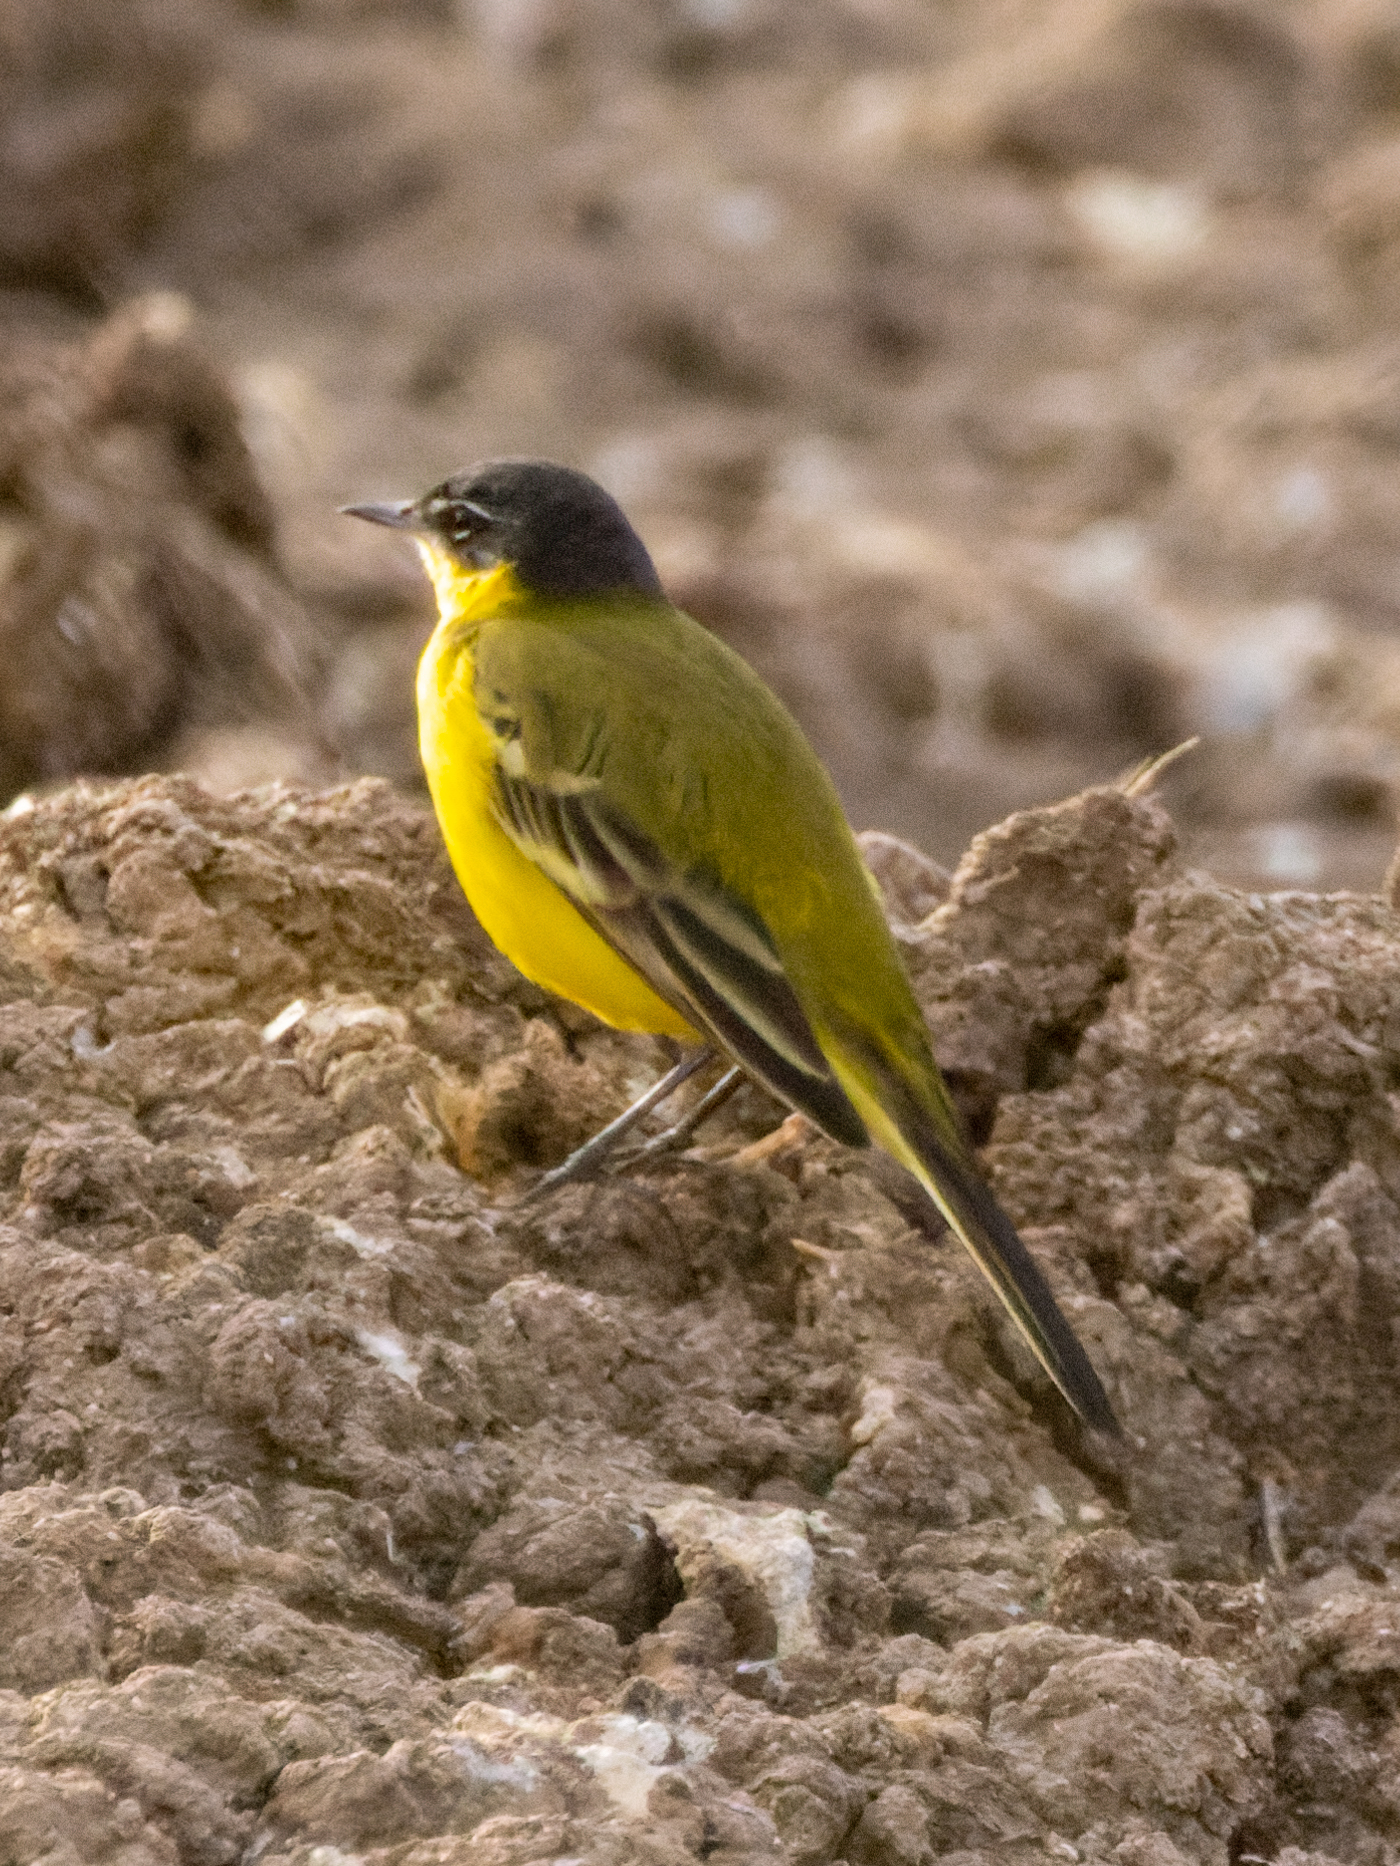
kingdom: Animalia
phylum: Chordata
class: Aves
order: Passeriformes
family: Motacillidae
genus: Motacilla
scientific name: Motacilla flava
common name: Western yellow wagtail
